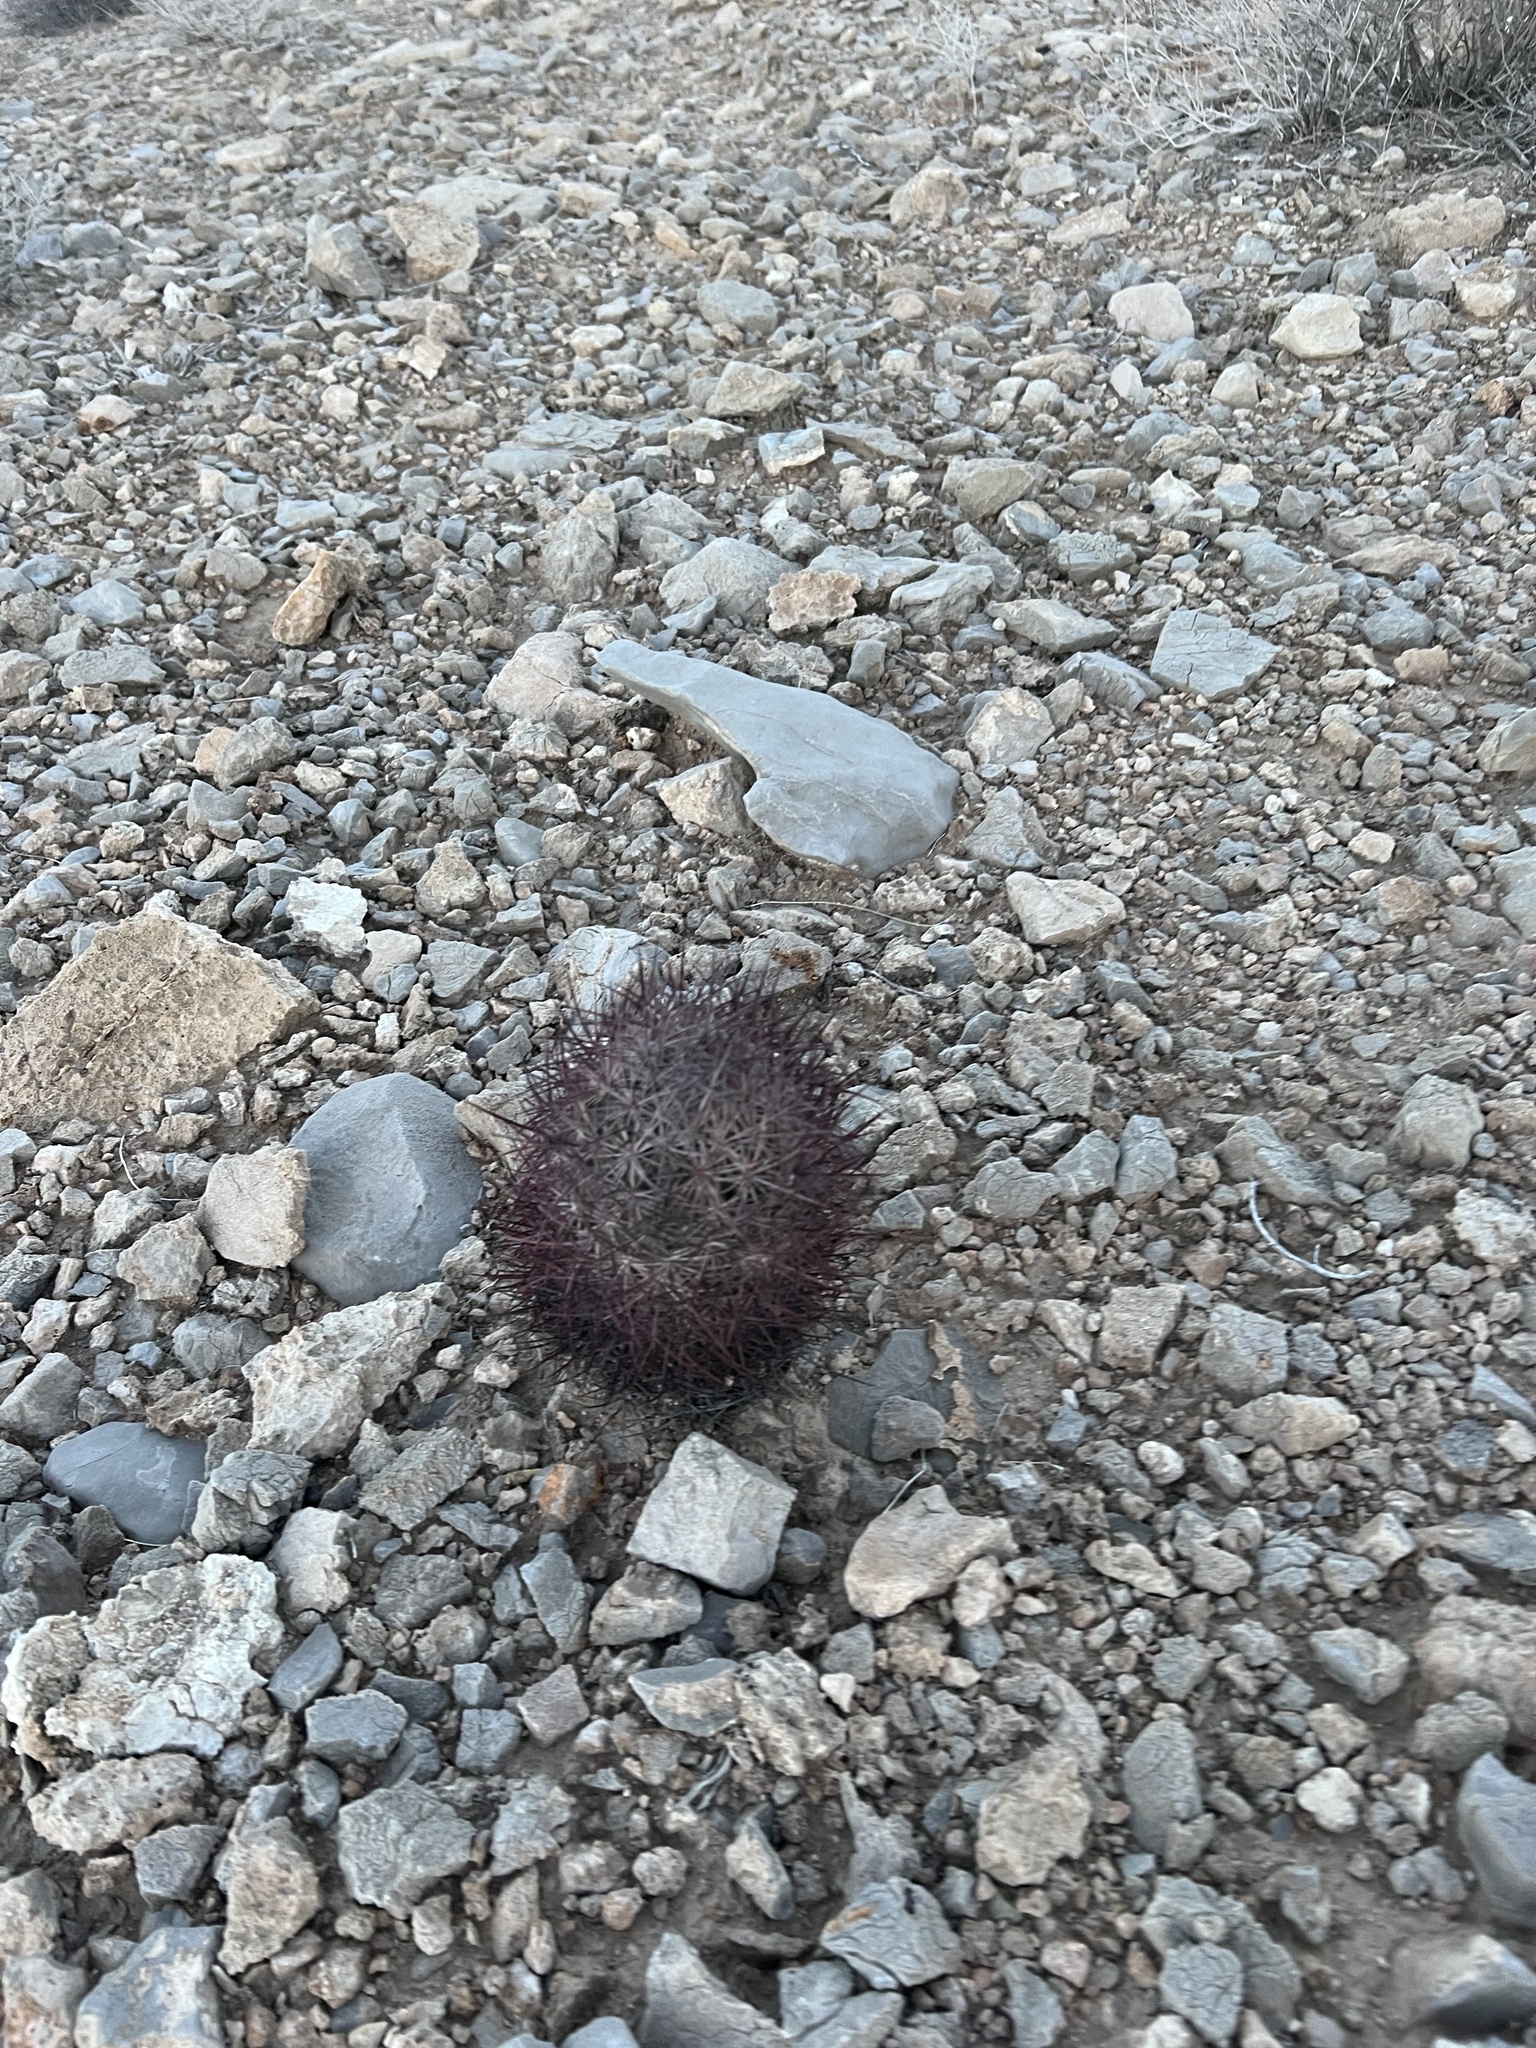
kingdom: Plantae
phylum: Tracheophyta
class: Magnoliopsida
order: Caryophyllales
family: Cactaceae
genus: Sclerocactus
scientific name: Sclerocactus johnsonii
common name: Eight-spine fishhook cactus
